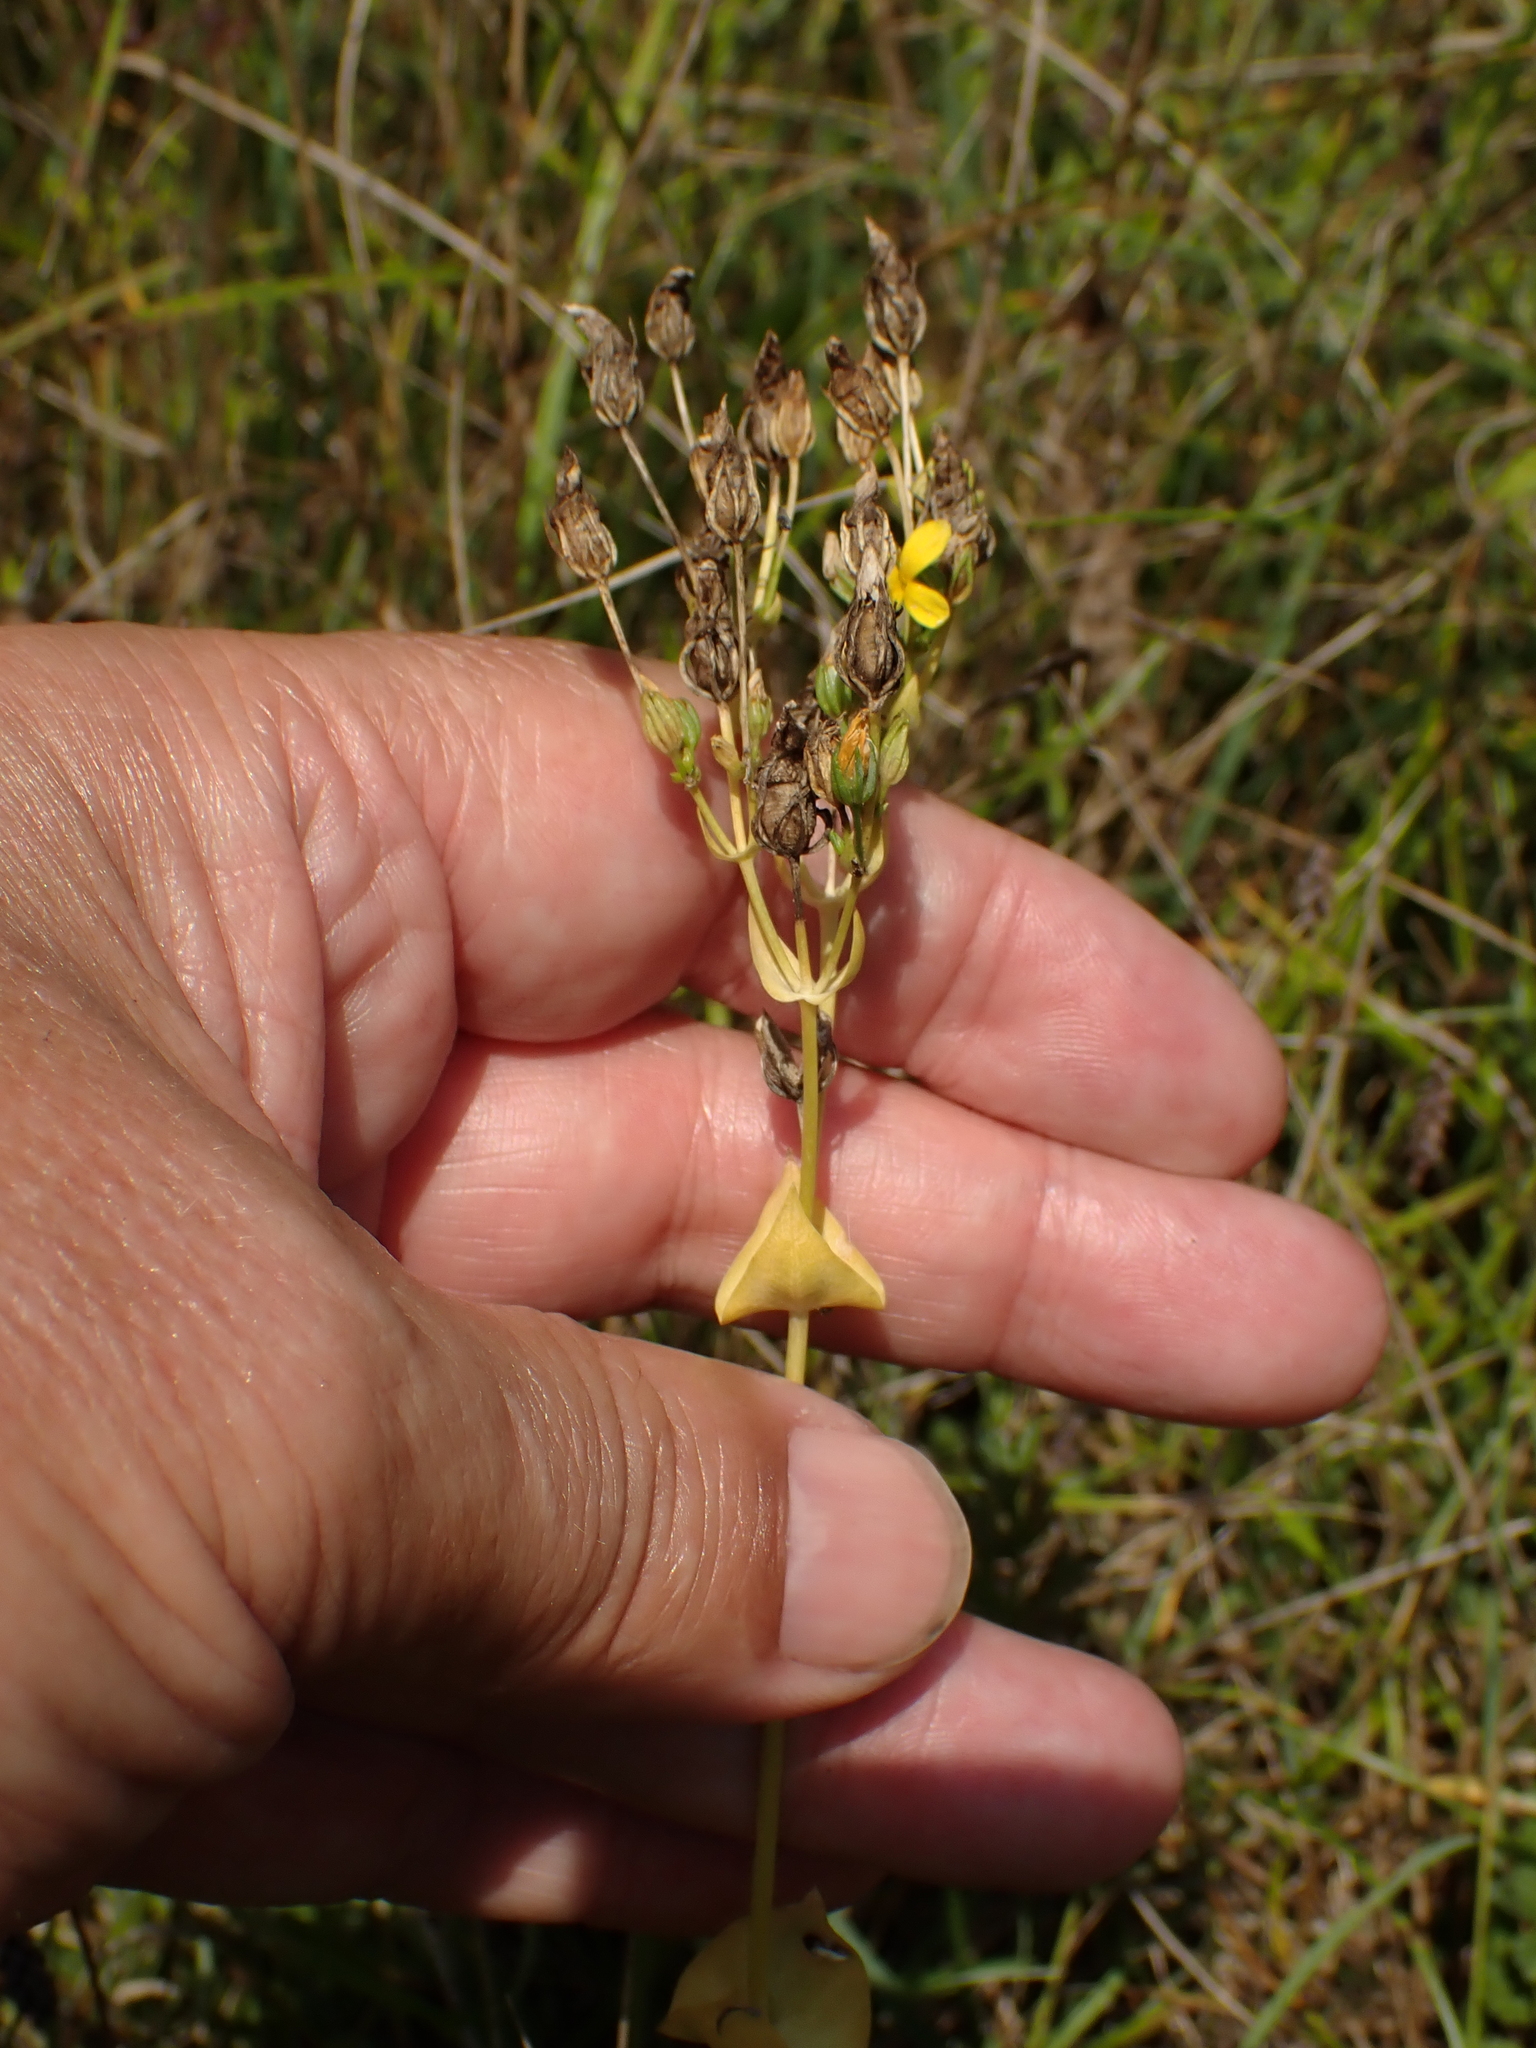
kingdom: Plantae
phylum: Tracheophyta
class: Magnoliopsida
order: Gentianales
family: Gentianaceae
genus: Blackstonia
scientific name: Blackstonia perfoliata
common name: Yellow-wort
